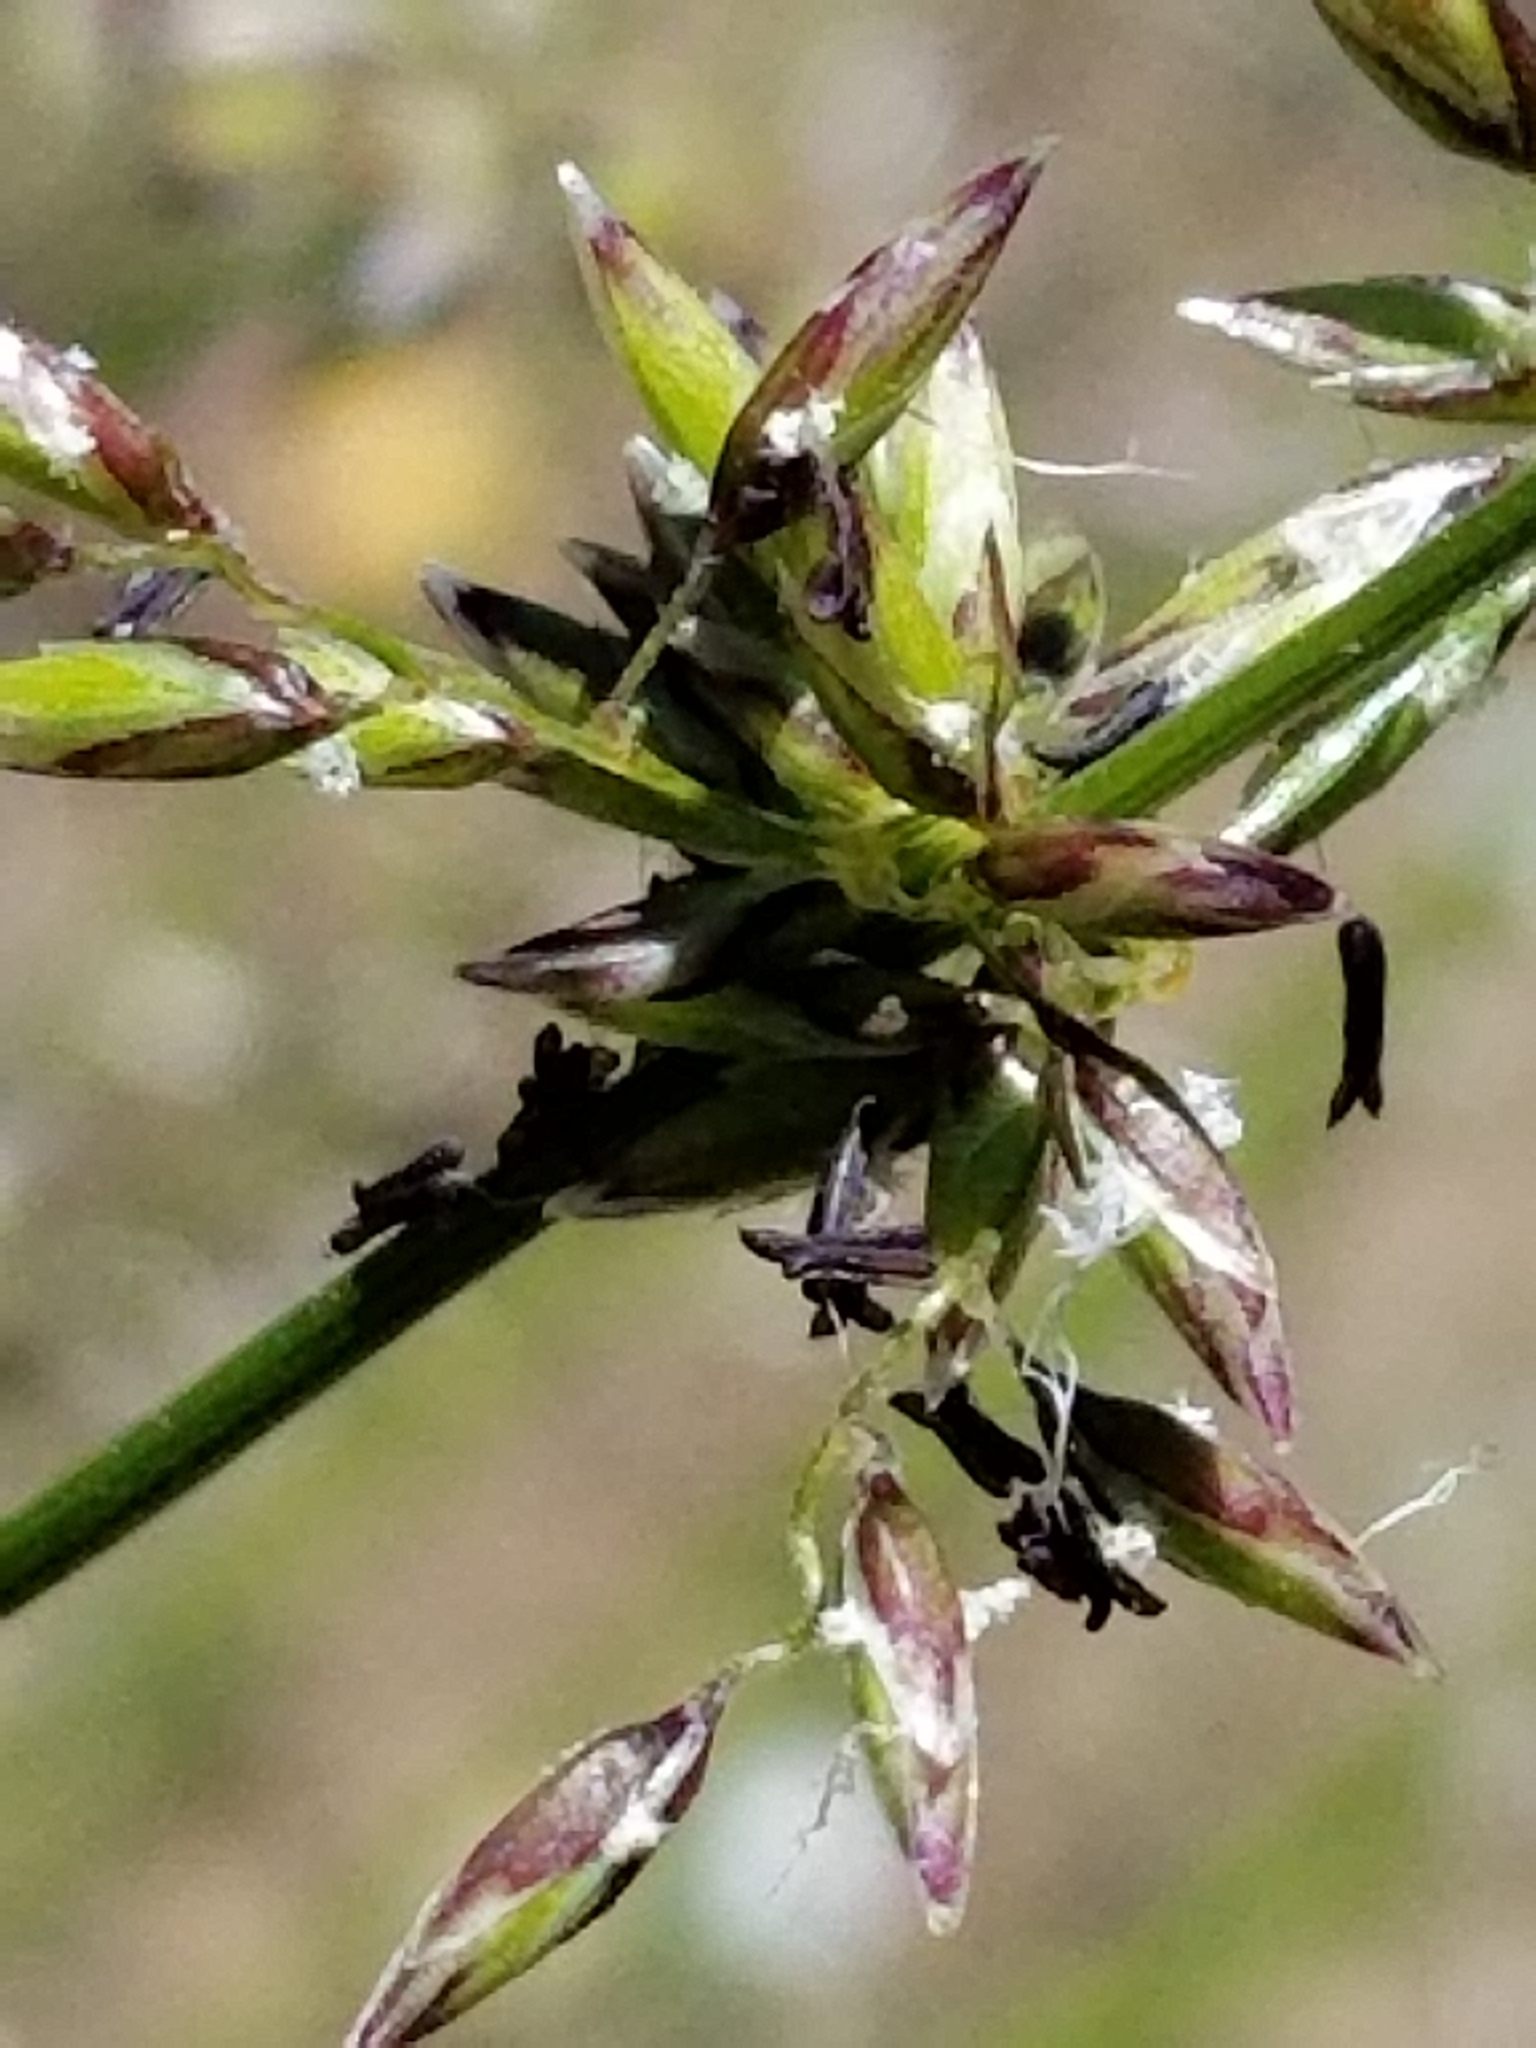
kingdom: Plantae
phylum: Tracheophyta
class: Liliopsida
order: Poales
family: Poaceae
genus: Melica
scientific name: Melica imperfecta
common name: California melic
